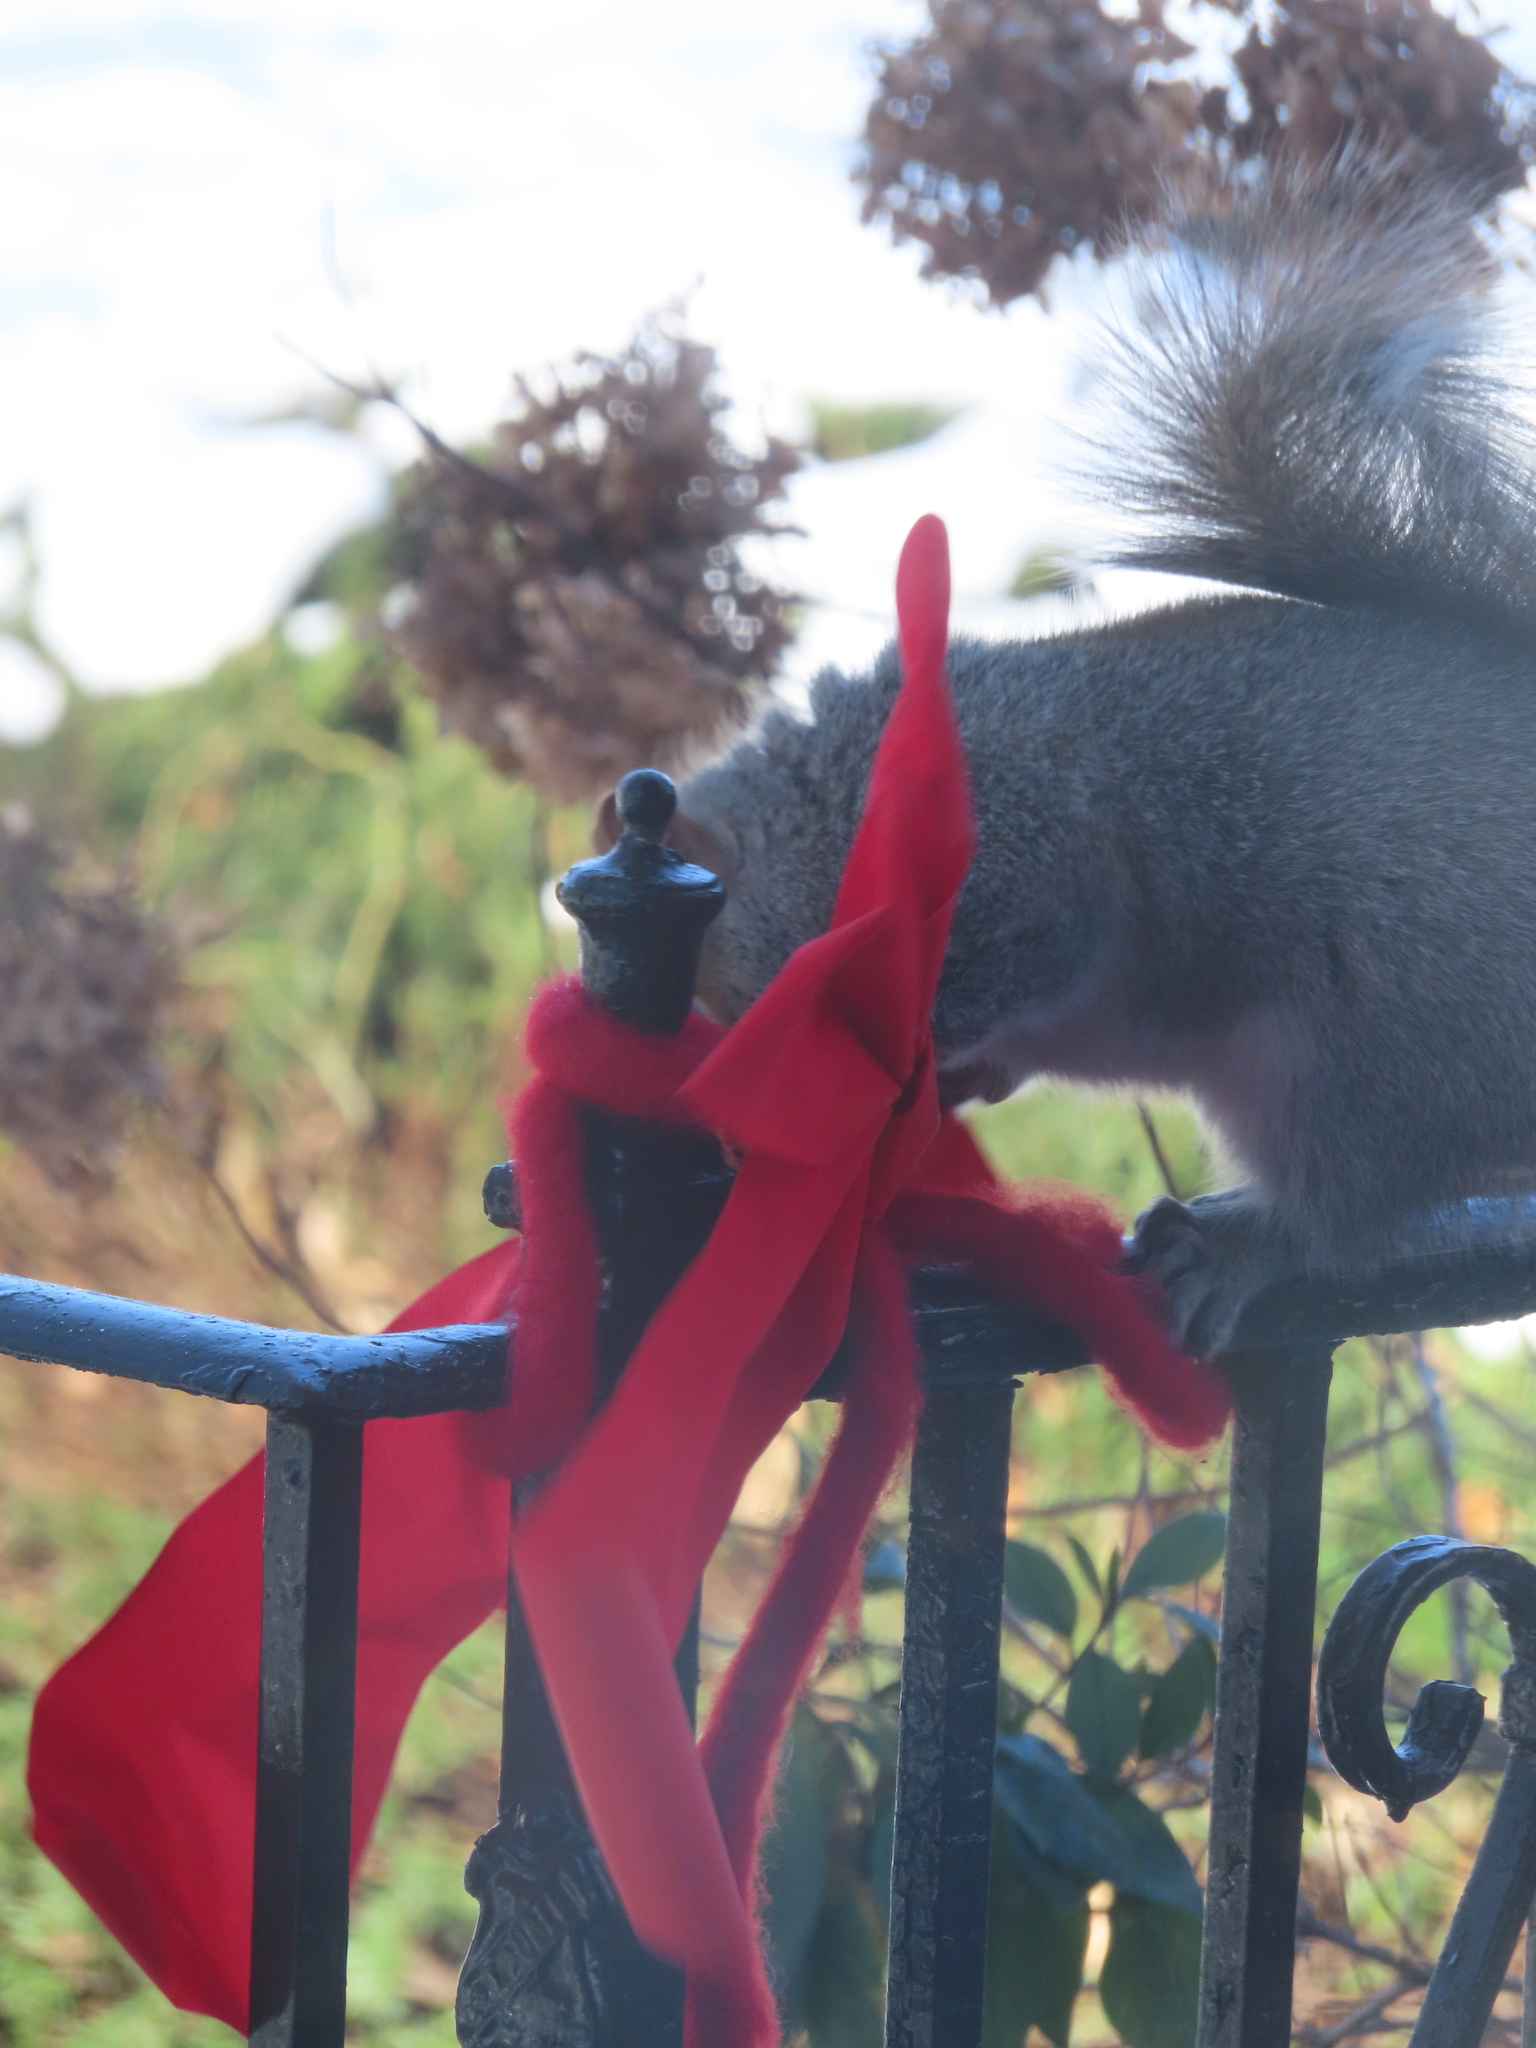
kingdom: Animalia
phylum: Chordata
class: Mammalia
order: Rodentia
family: Sciuridae
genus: Sciurus
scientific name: Sciurus carolinensis
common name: Eastern gray squirrel
